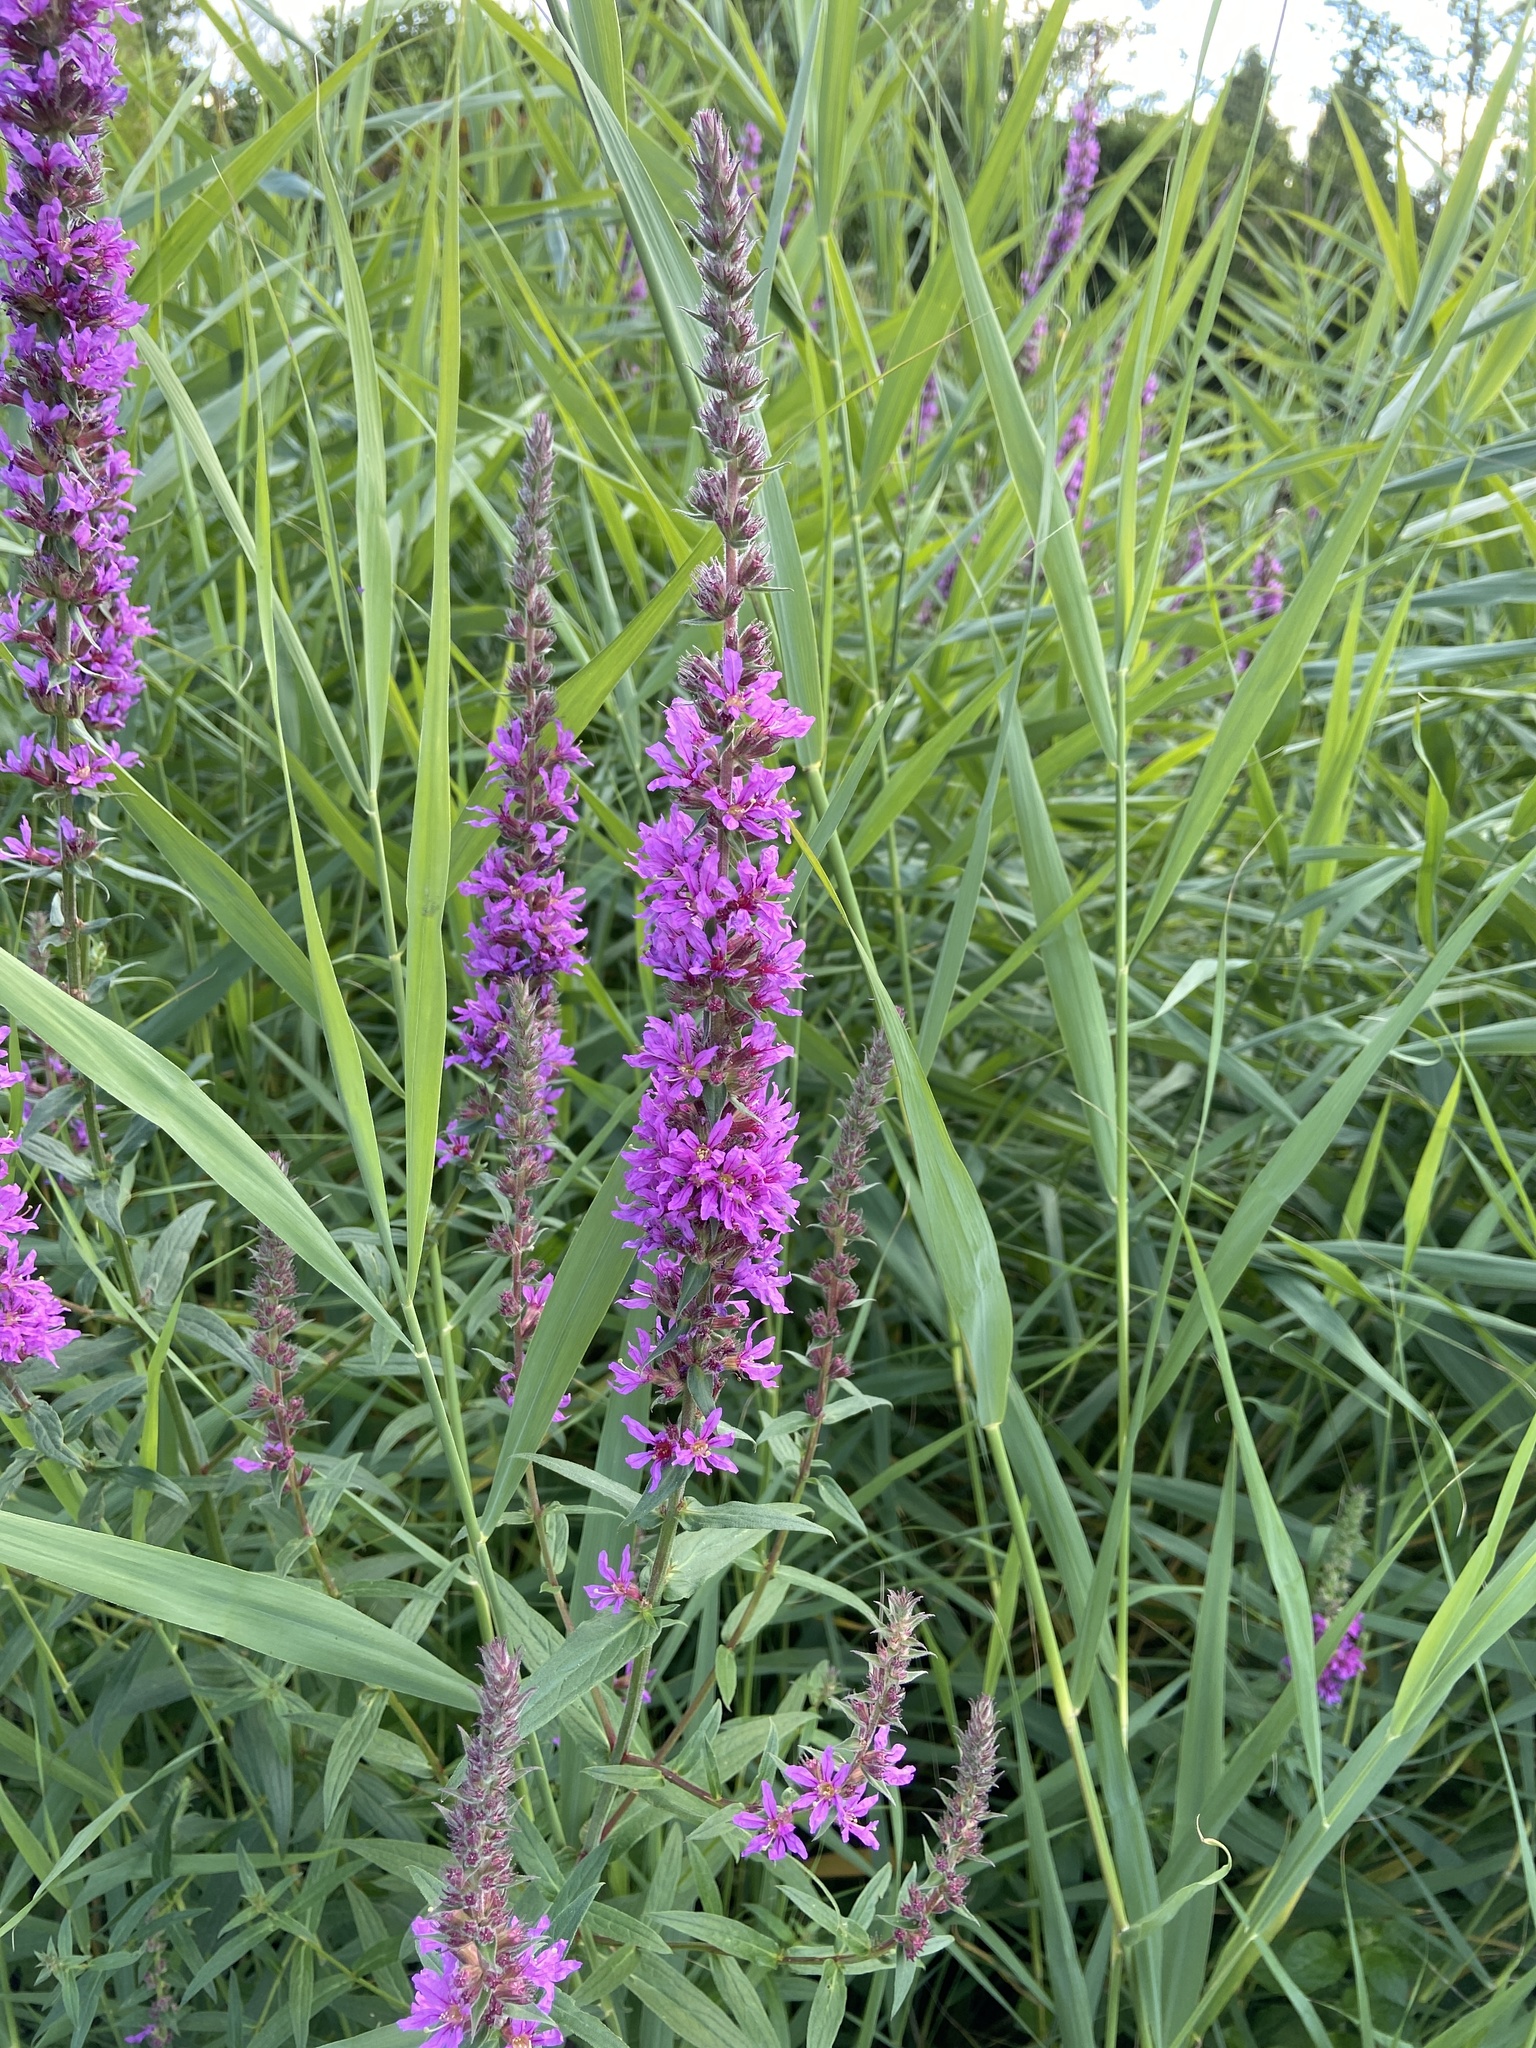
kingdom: Plantae
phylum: Tracheophyta
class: Magnoliopsida
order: Myrtales
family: Lythraceae
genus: Lythrum
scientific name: Lythrum salicaria
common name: Purple loosestrife
